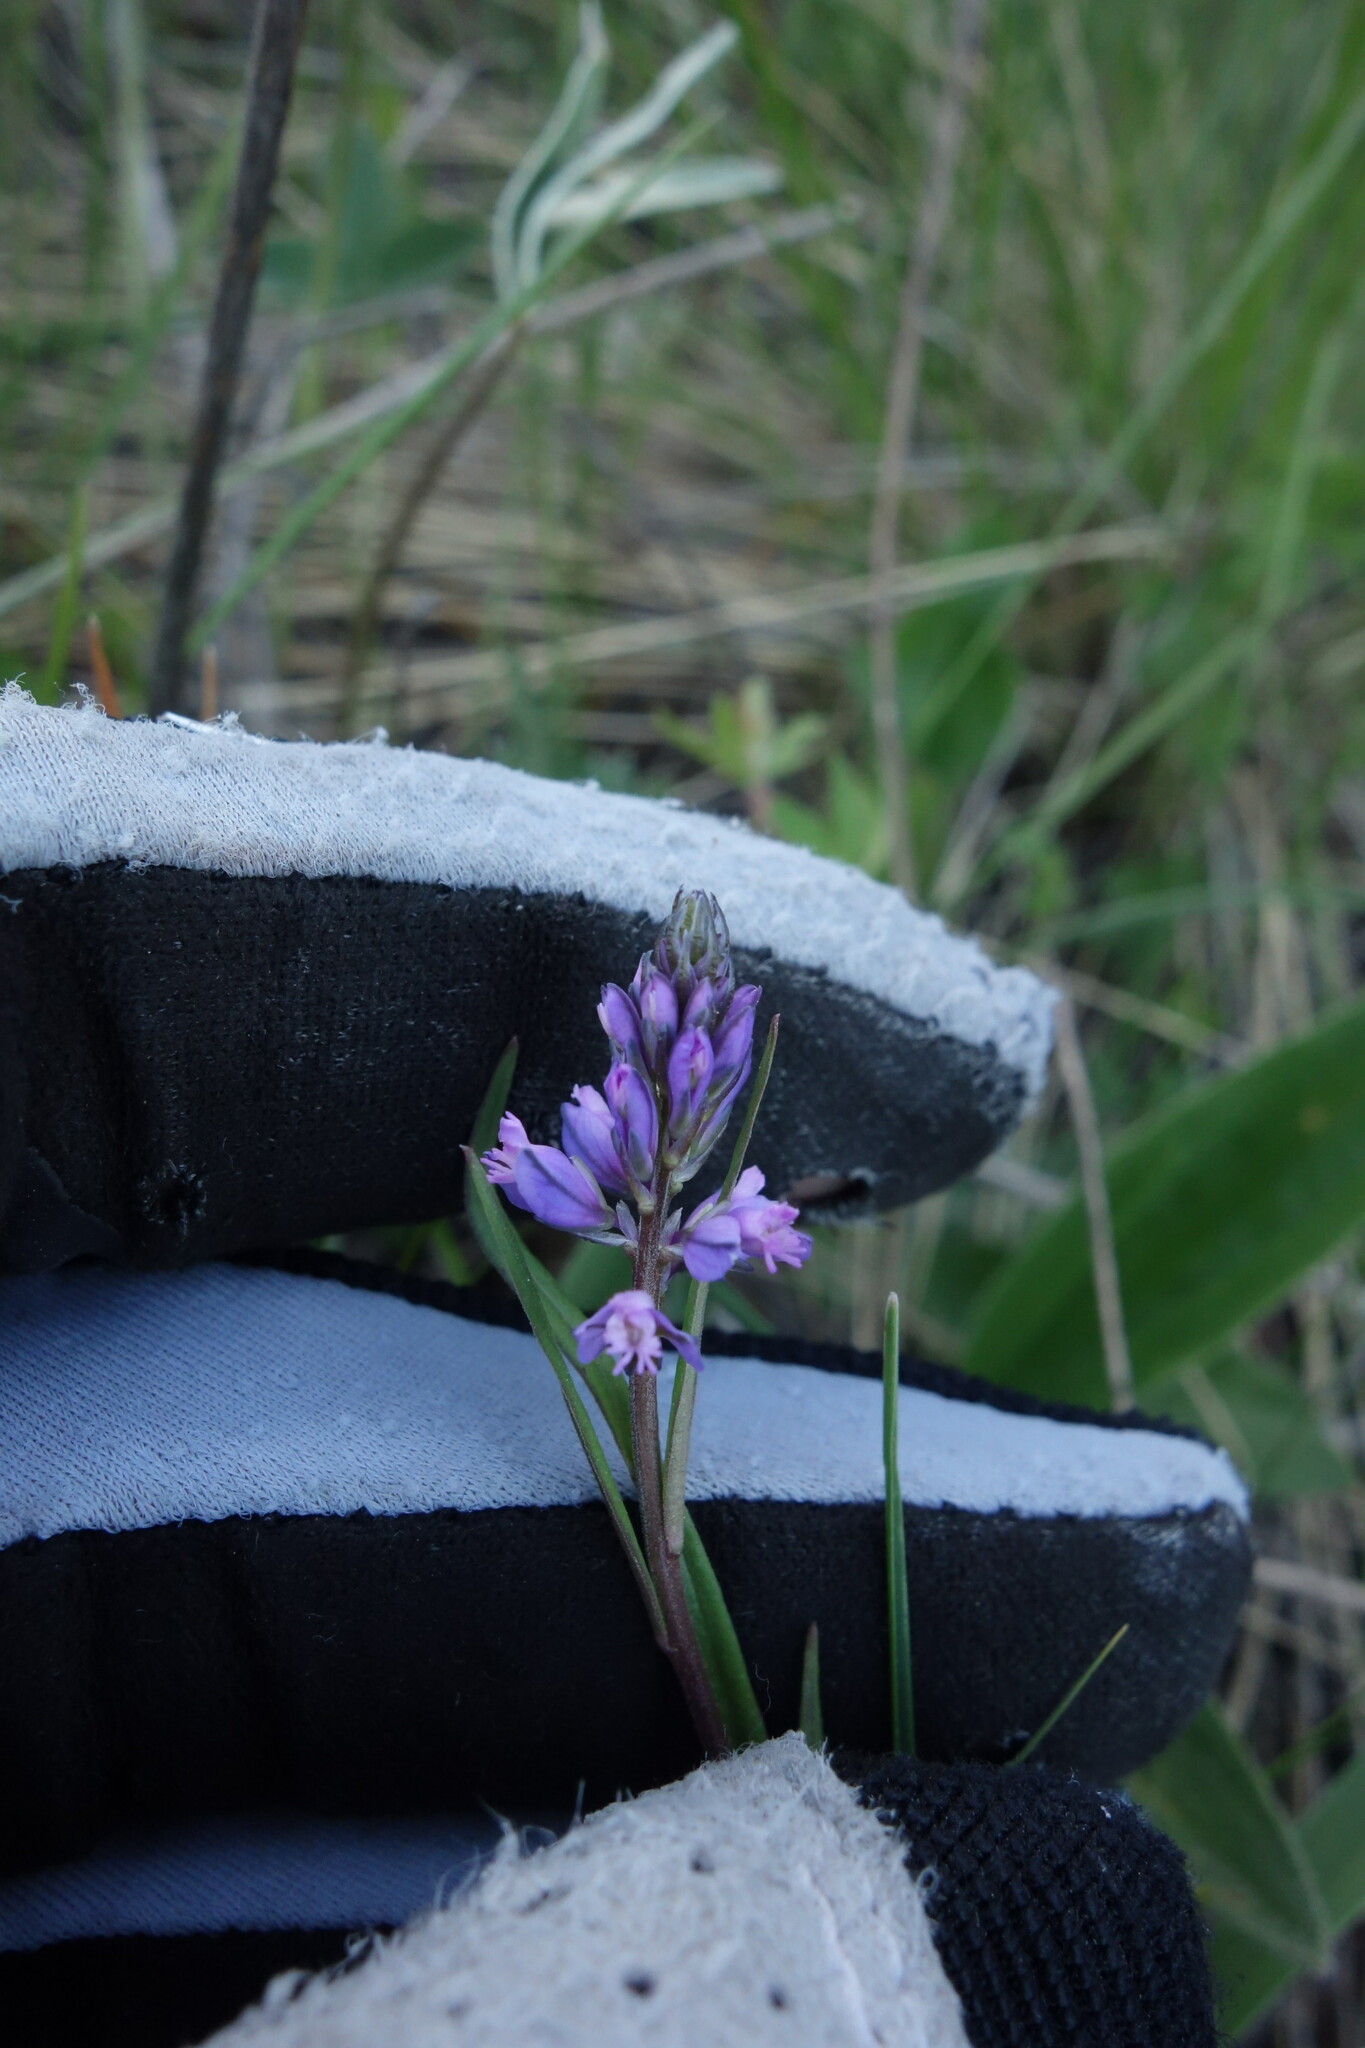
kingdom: Plantae
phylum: Tracheophyta
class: Magnoliopsida
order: Fabales
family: Polygalaceae
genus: Polygala
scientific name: Polygala comosa
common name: Tufted milkwort
